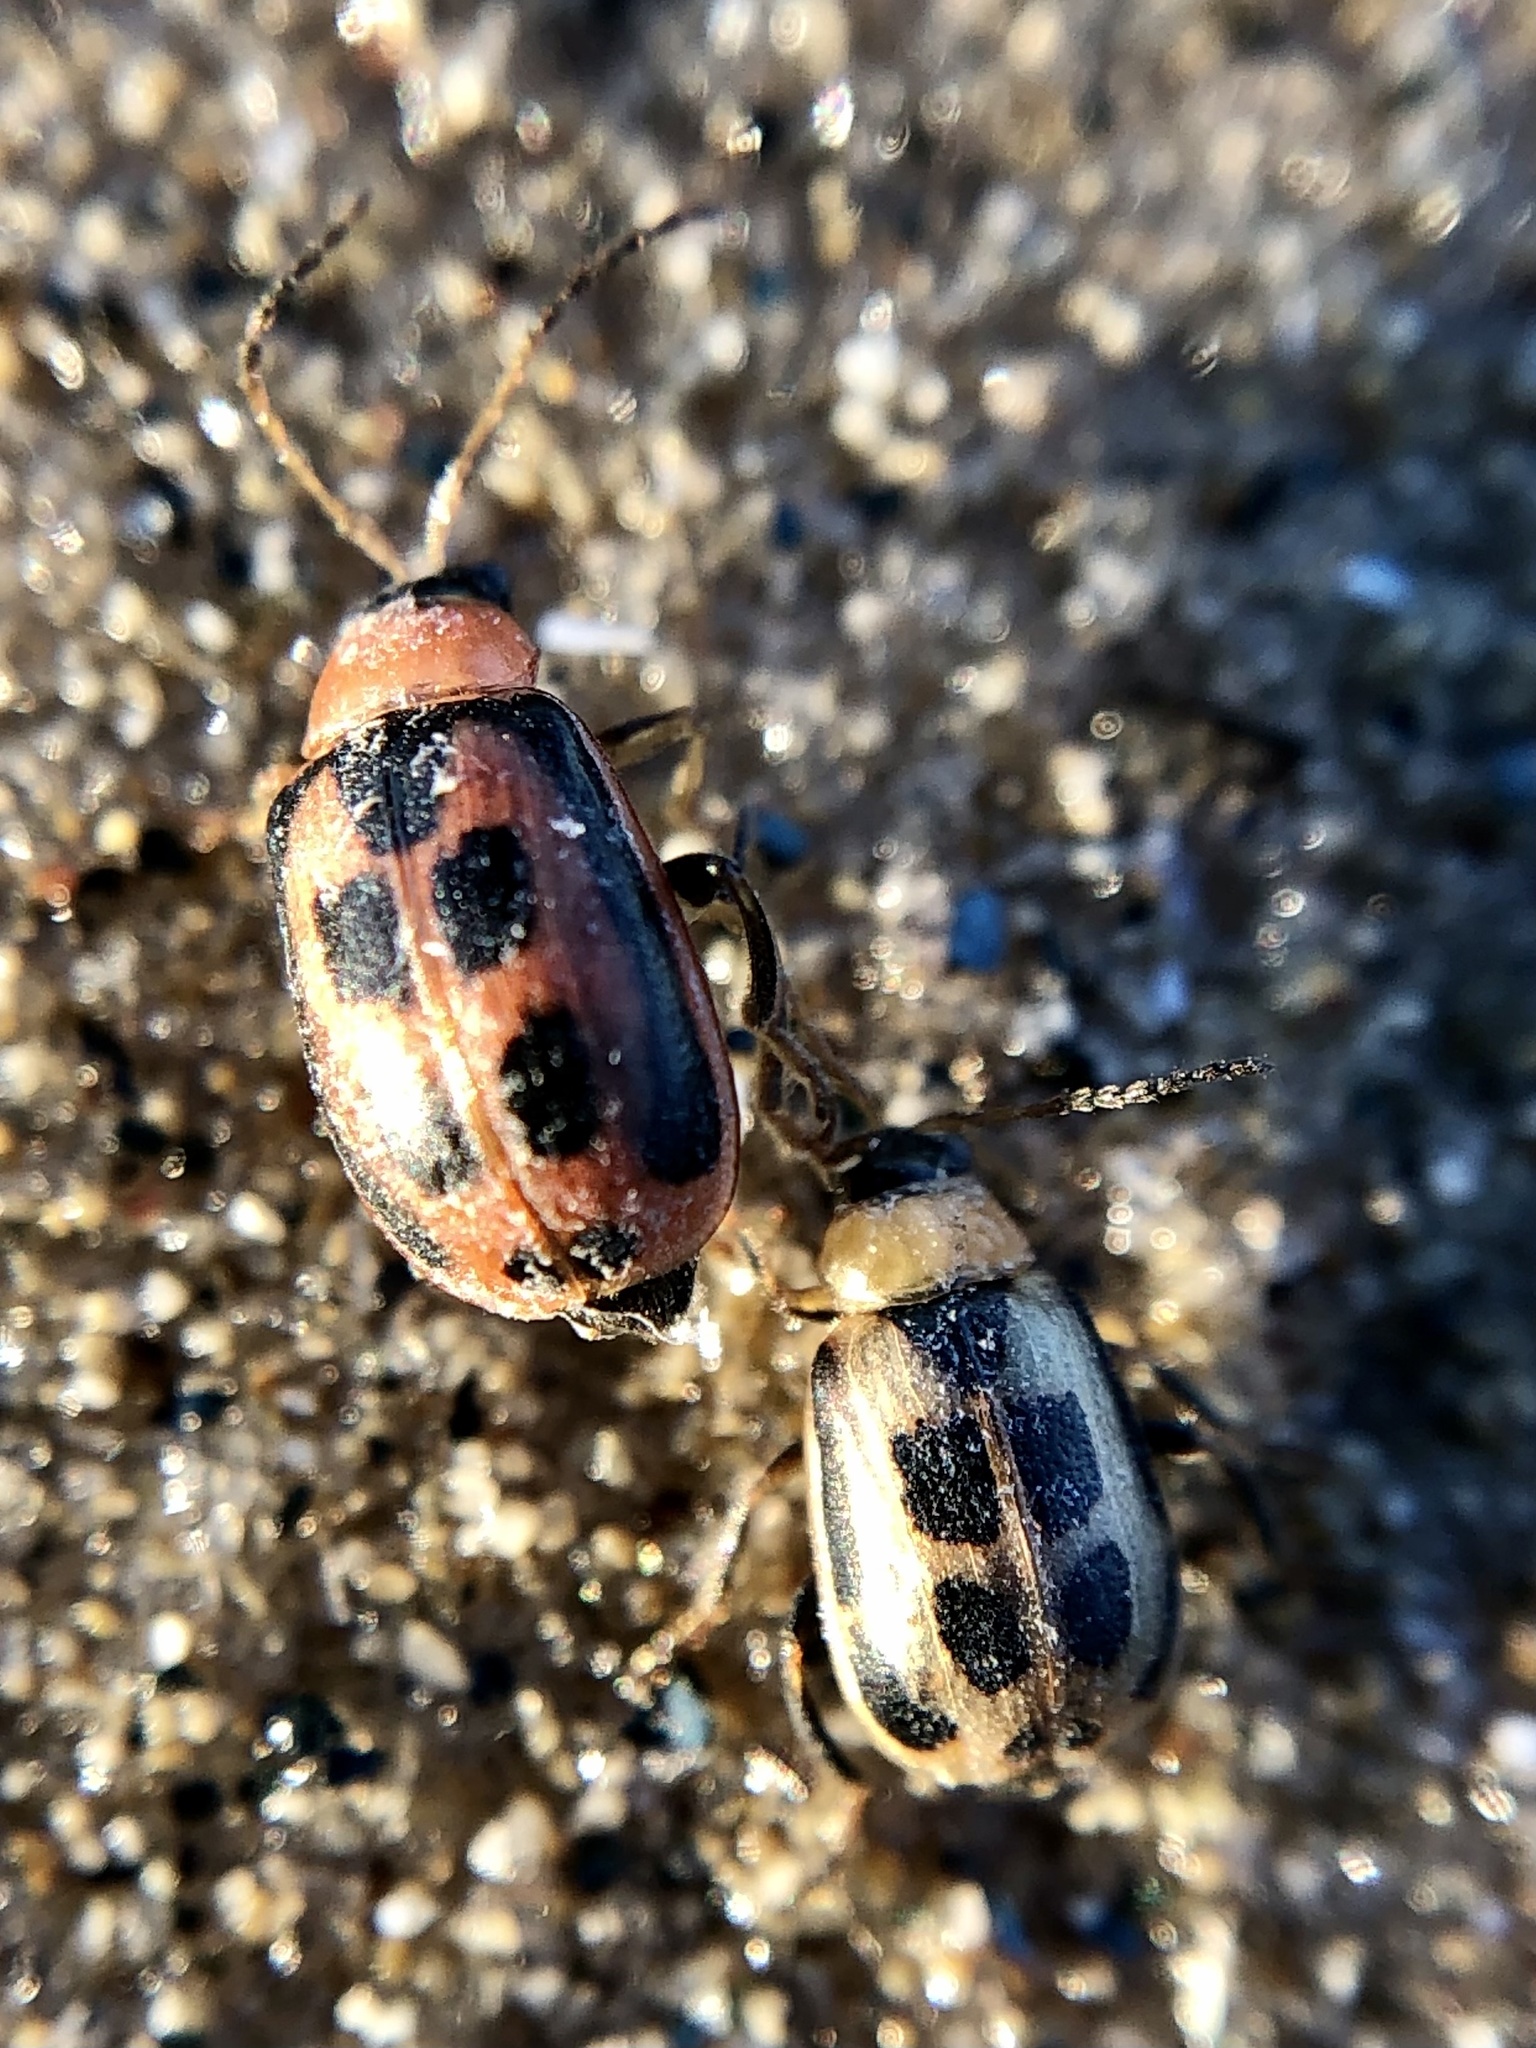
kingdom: Animalia
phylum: Arthropoda
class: Insecta
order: Coleoptera
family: Chrysomelidae
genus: Cerotoma
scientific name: Cerotoma trifurcata
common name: Bean leaf beetle
